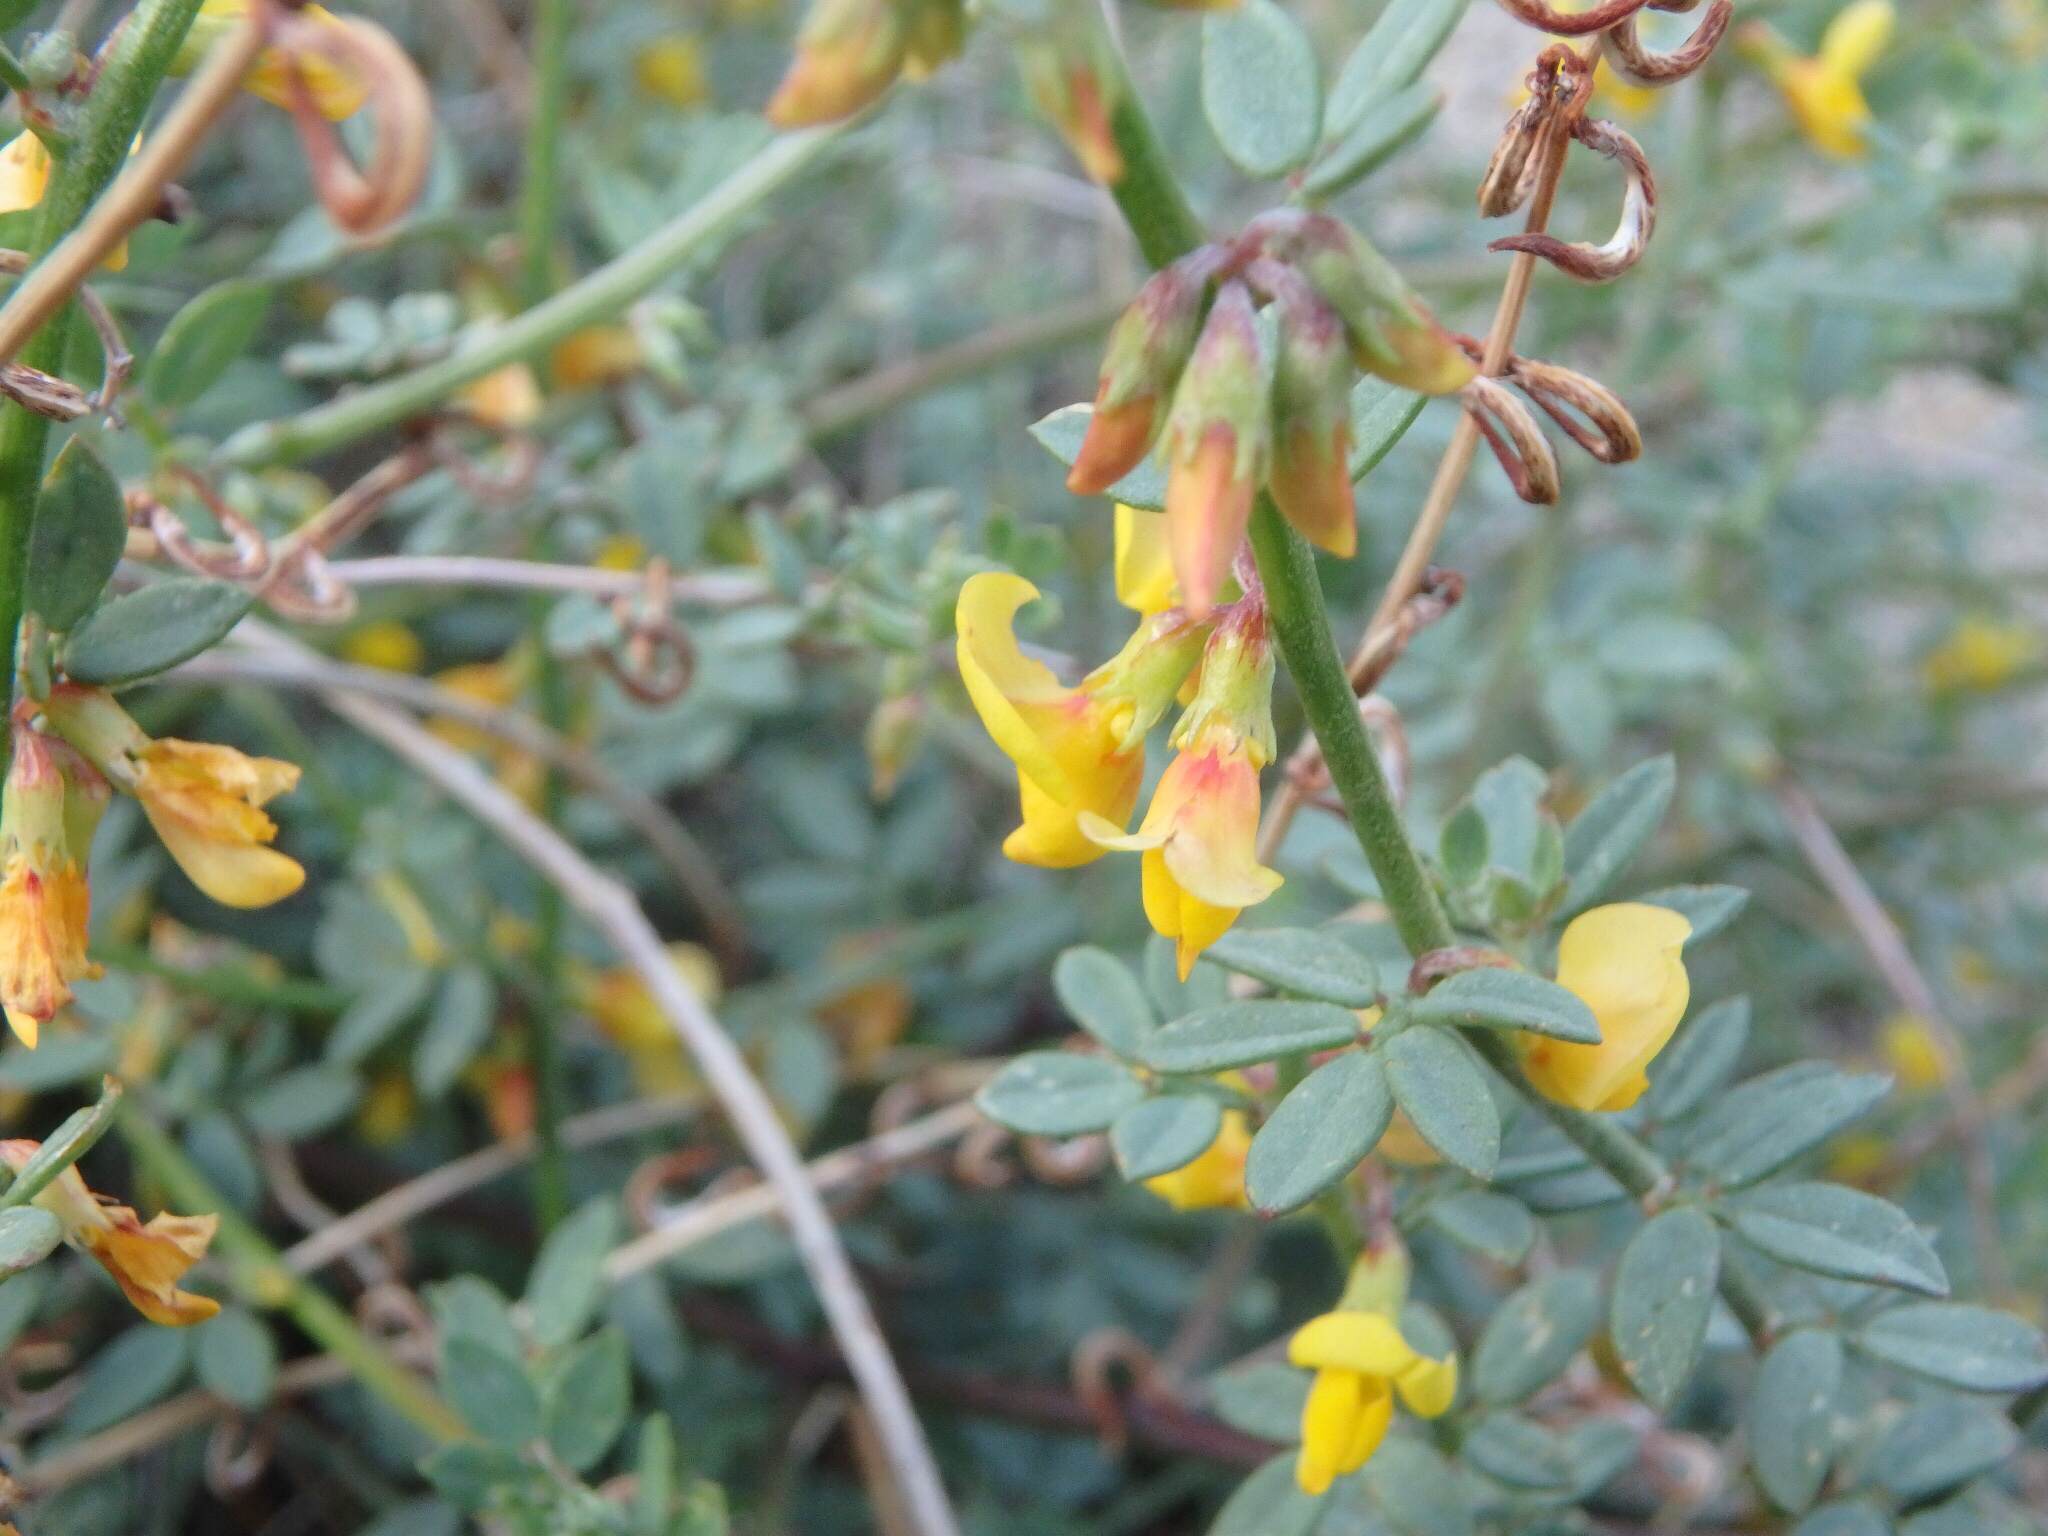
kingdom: Plantae
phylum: Tracheophyta
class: Magnoliopsida
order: Fabales
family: Fabaceae
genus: Acmispon
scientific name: Acmispon glaber
